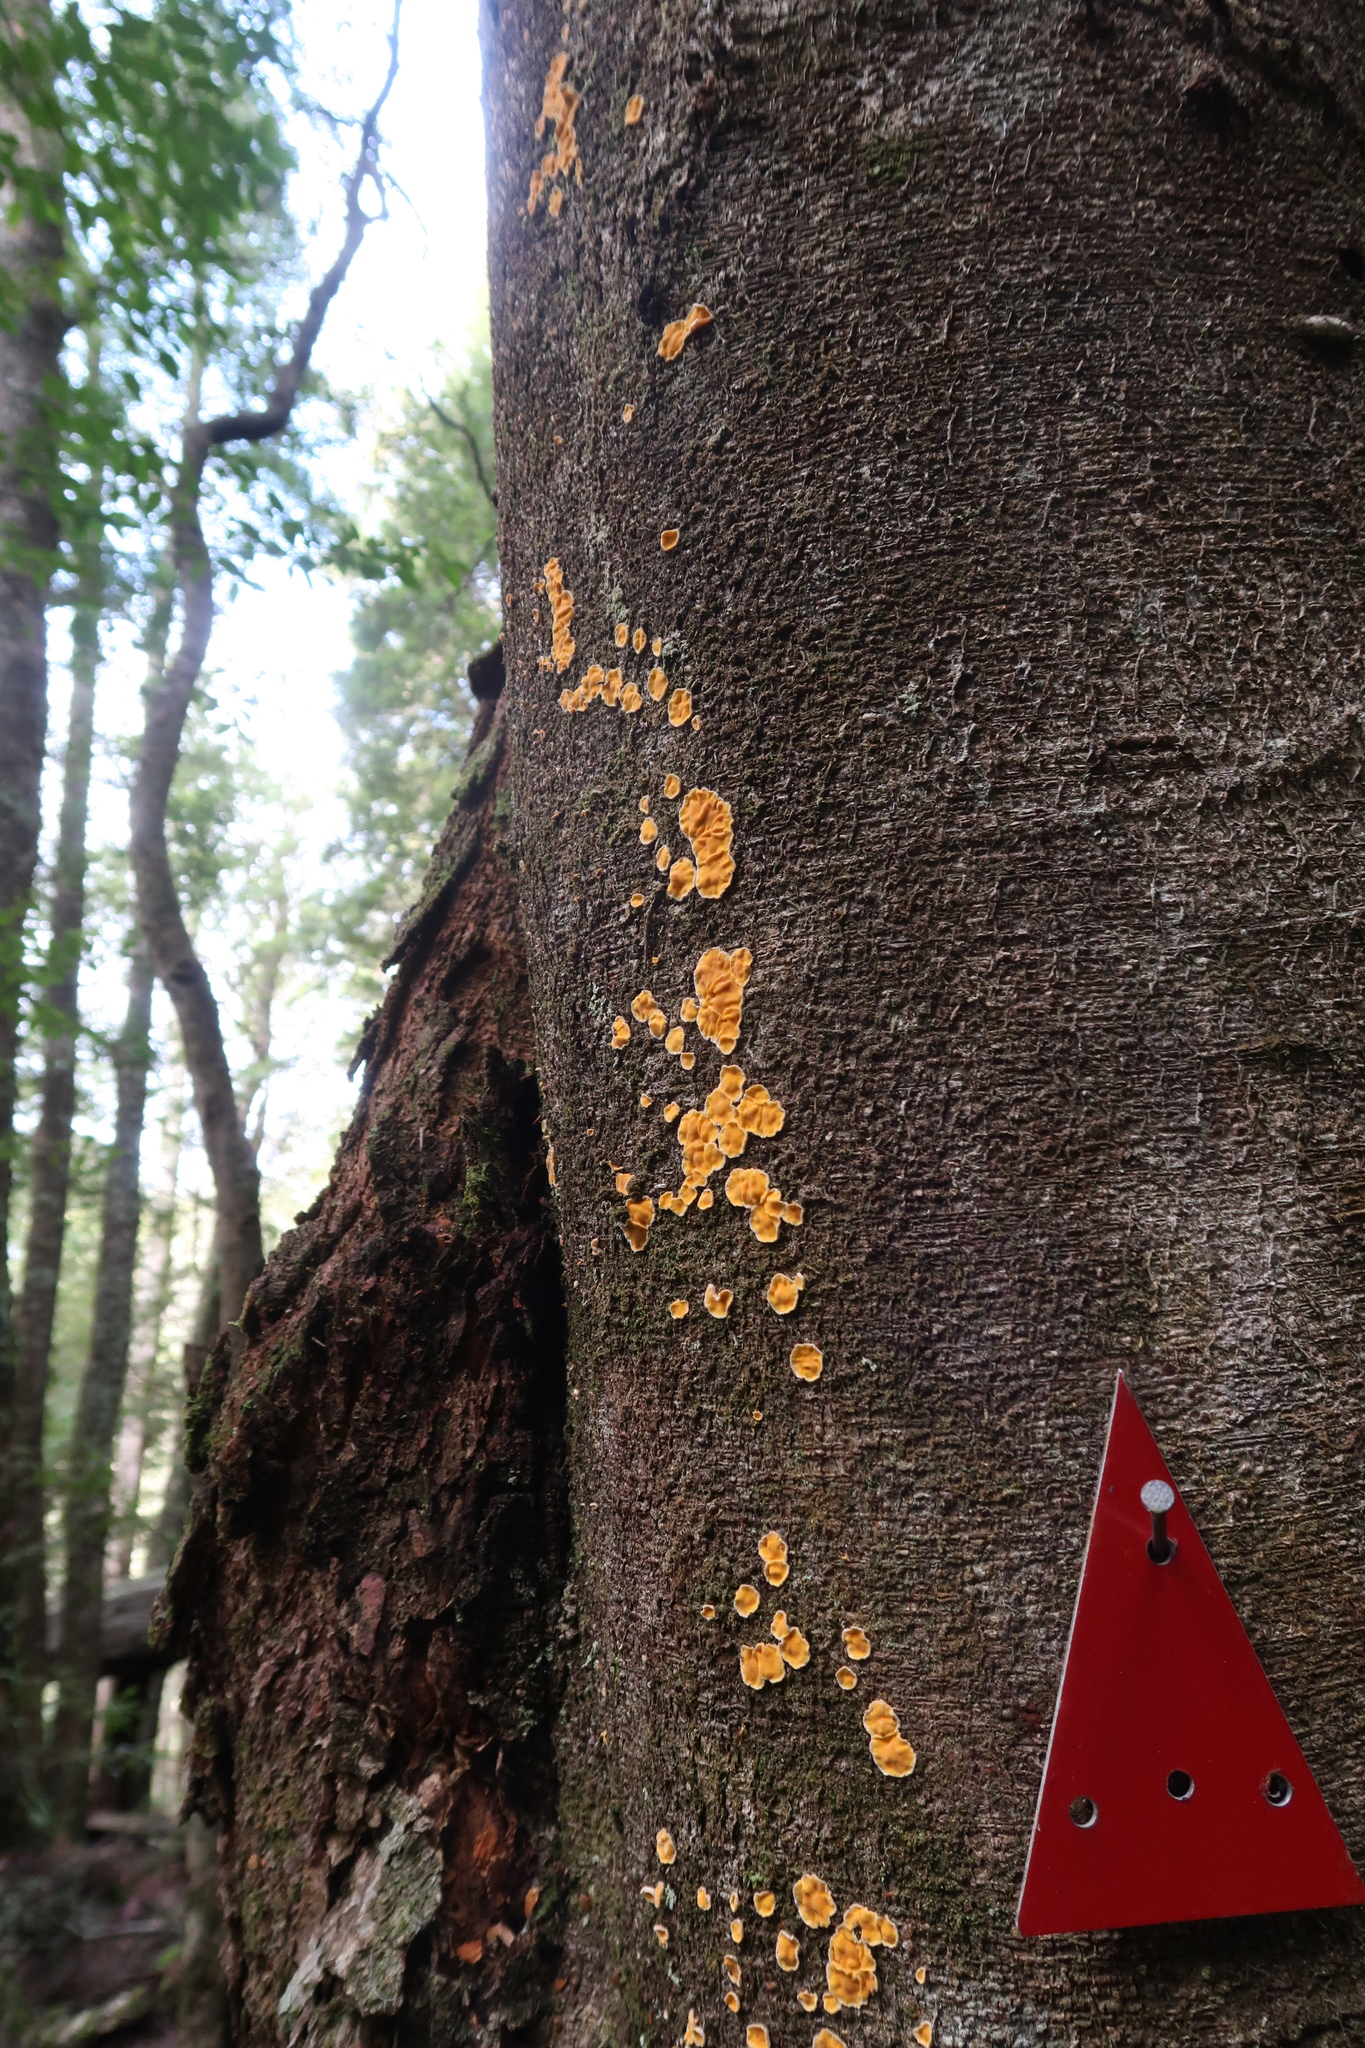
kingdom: Fungi
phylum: Basidiomycota
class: Agaricomycetes
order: Russulales
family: Stereaceae
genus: Stereodiscus
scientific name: Stereodiscus limonisporus
